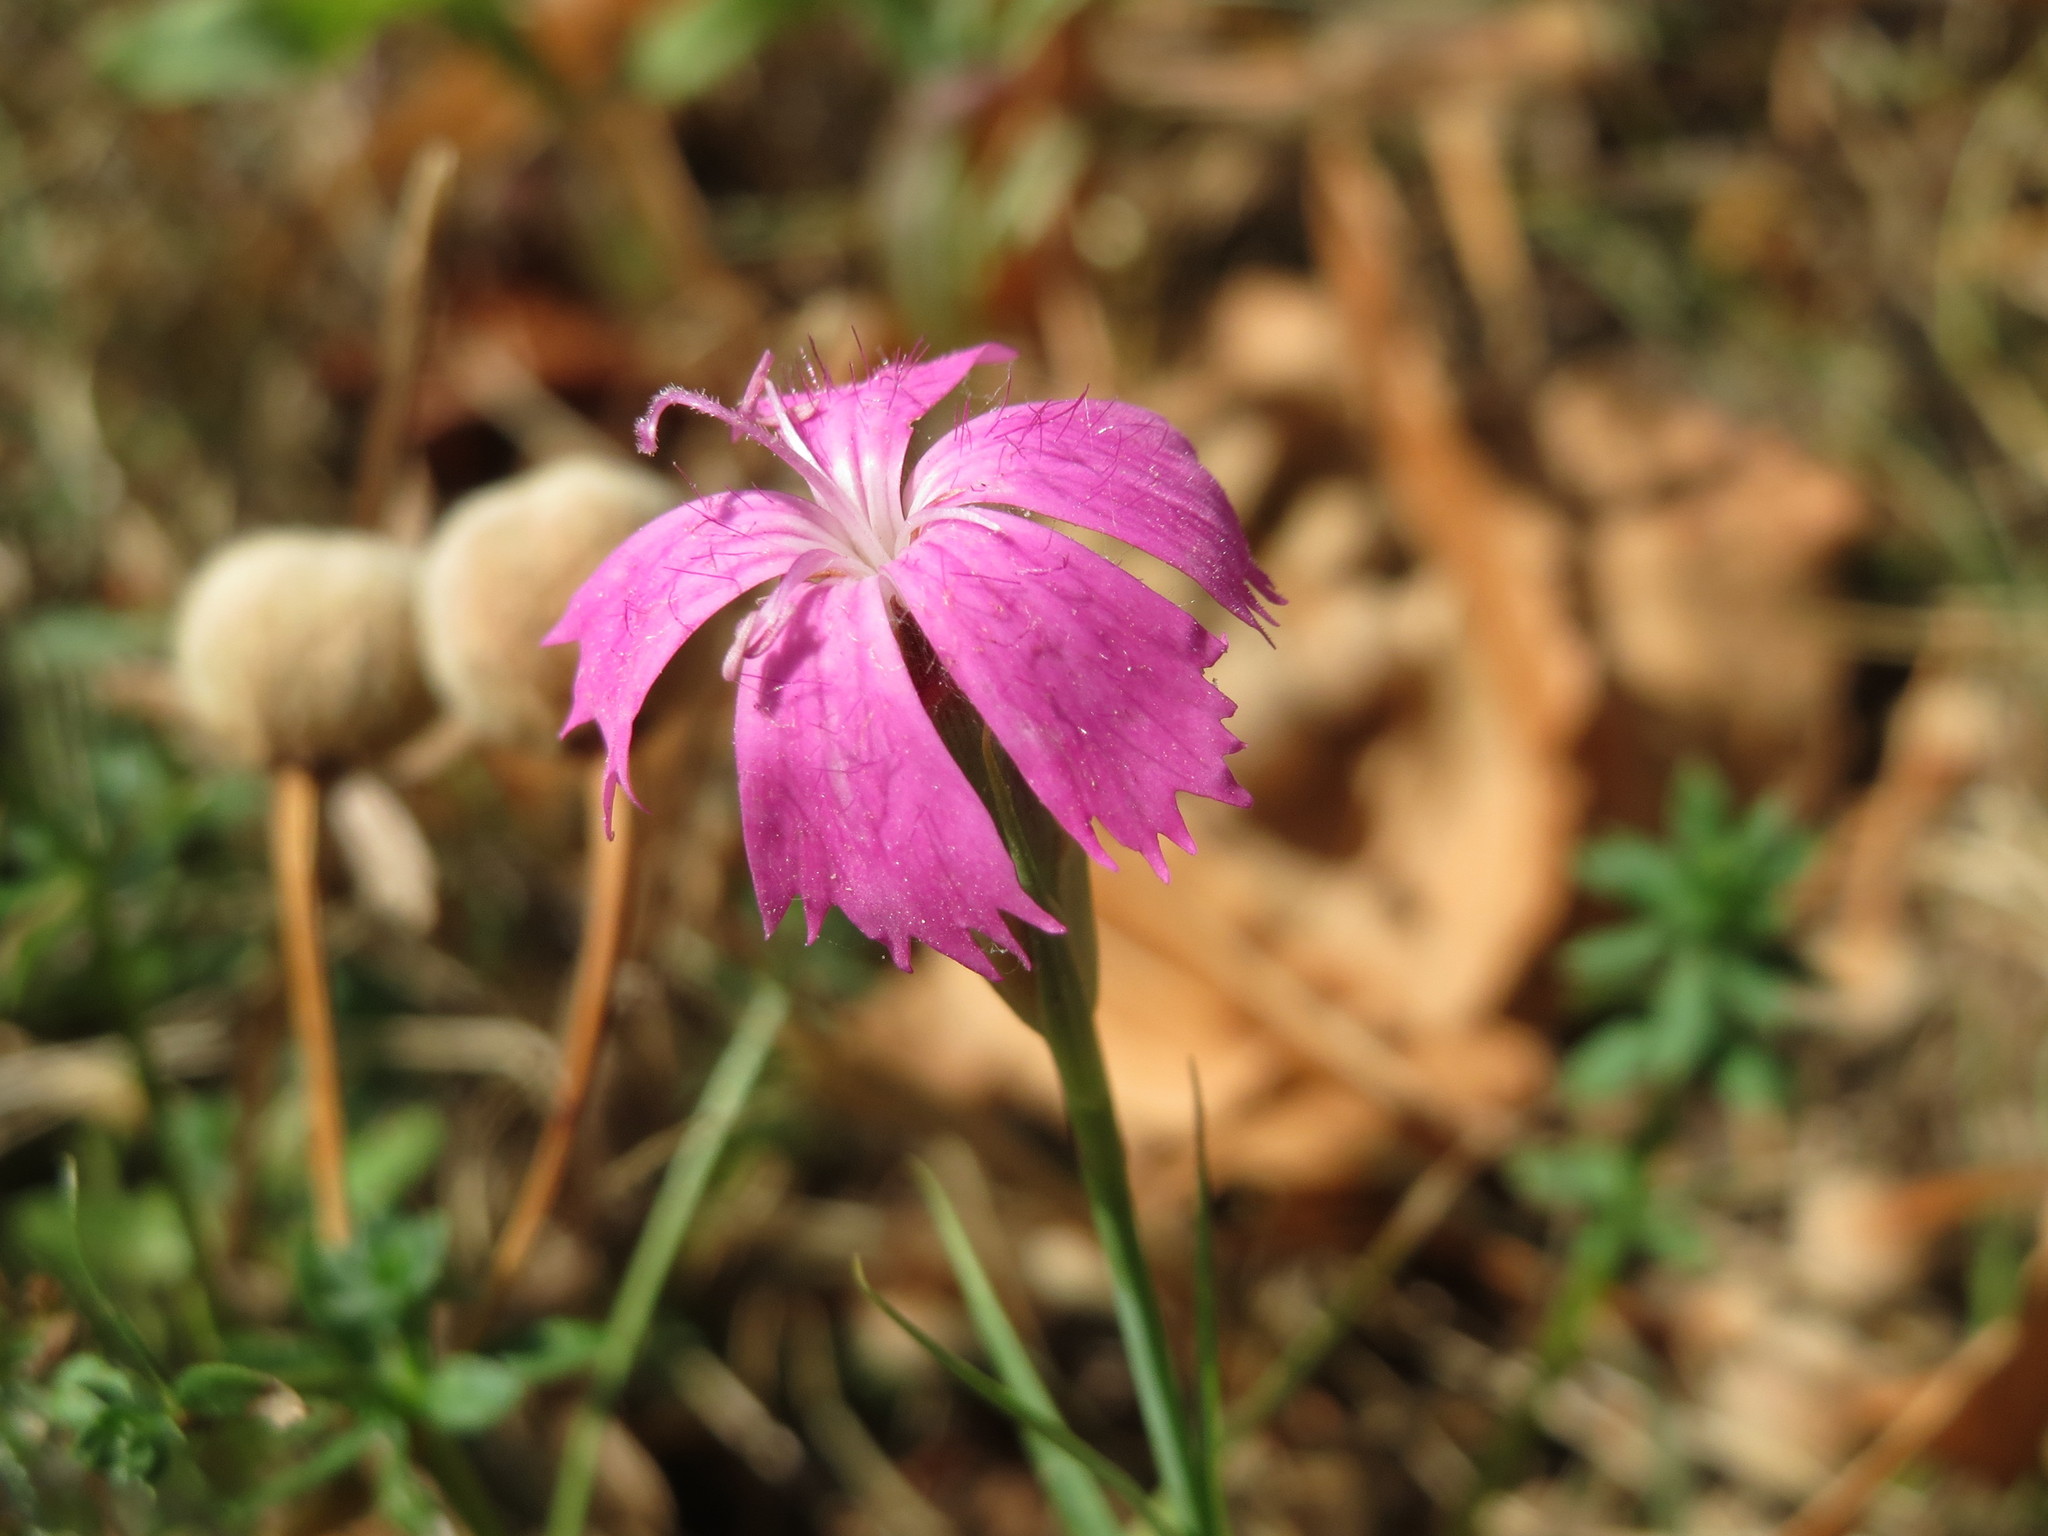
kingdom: Plantae
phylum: Tracheophyta
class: Magnoliopsida
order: Caryophyllales
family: Caryophyllaceae
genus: Dianthus
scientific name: Dianthus carthusianorum
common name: Carthusian pink
